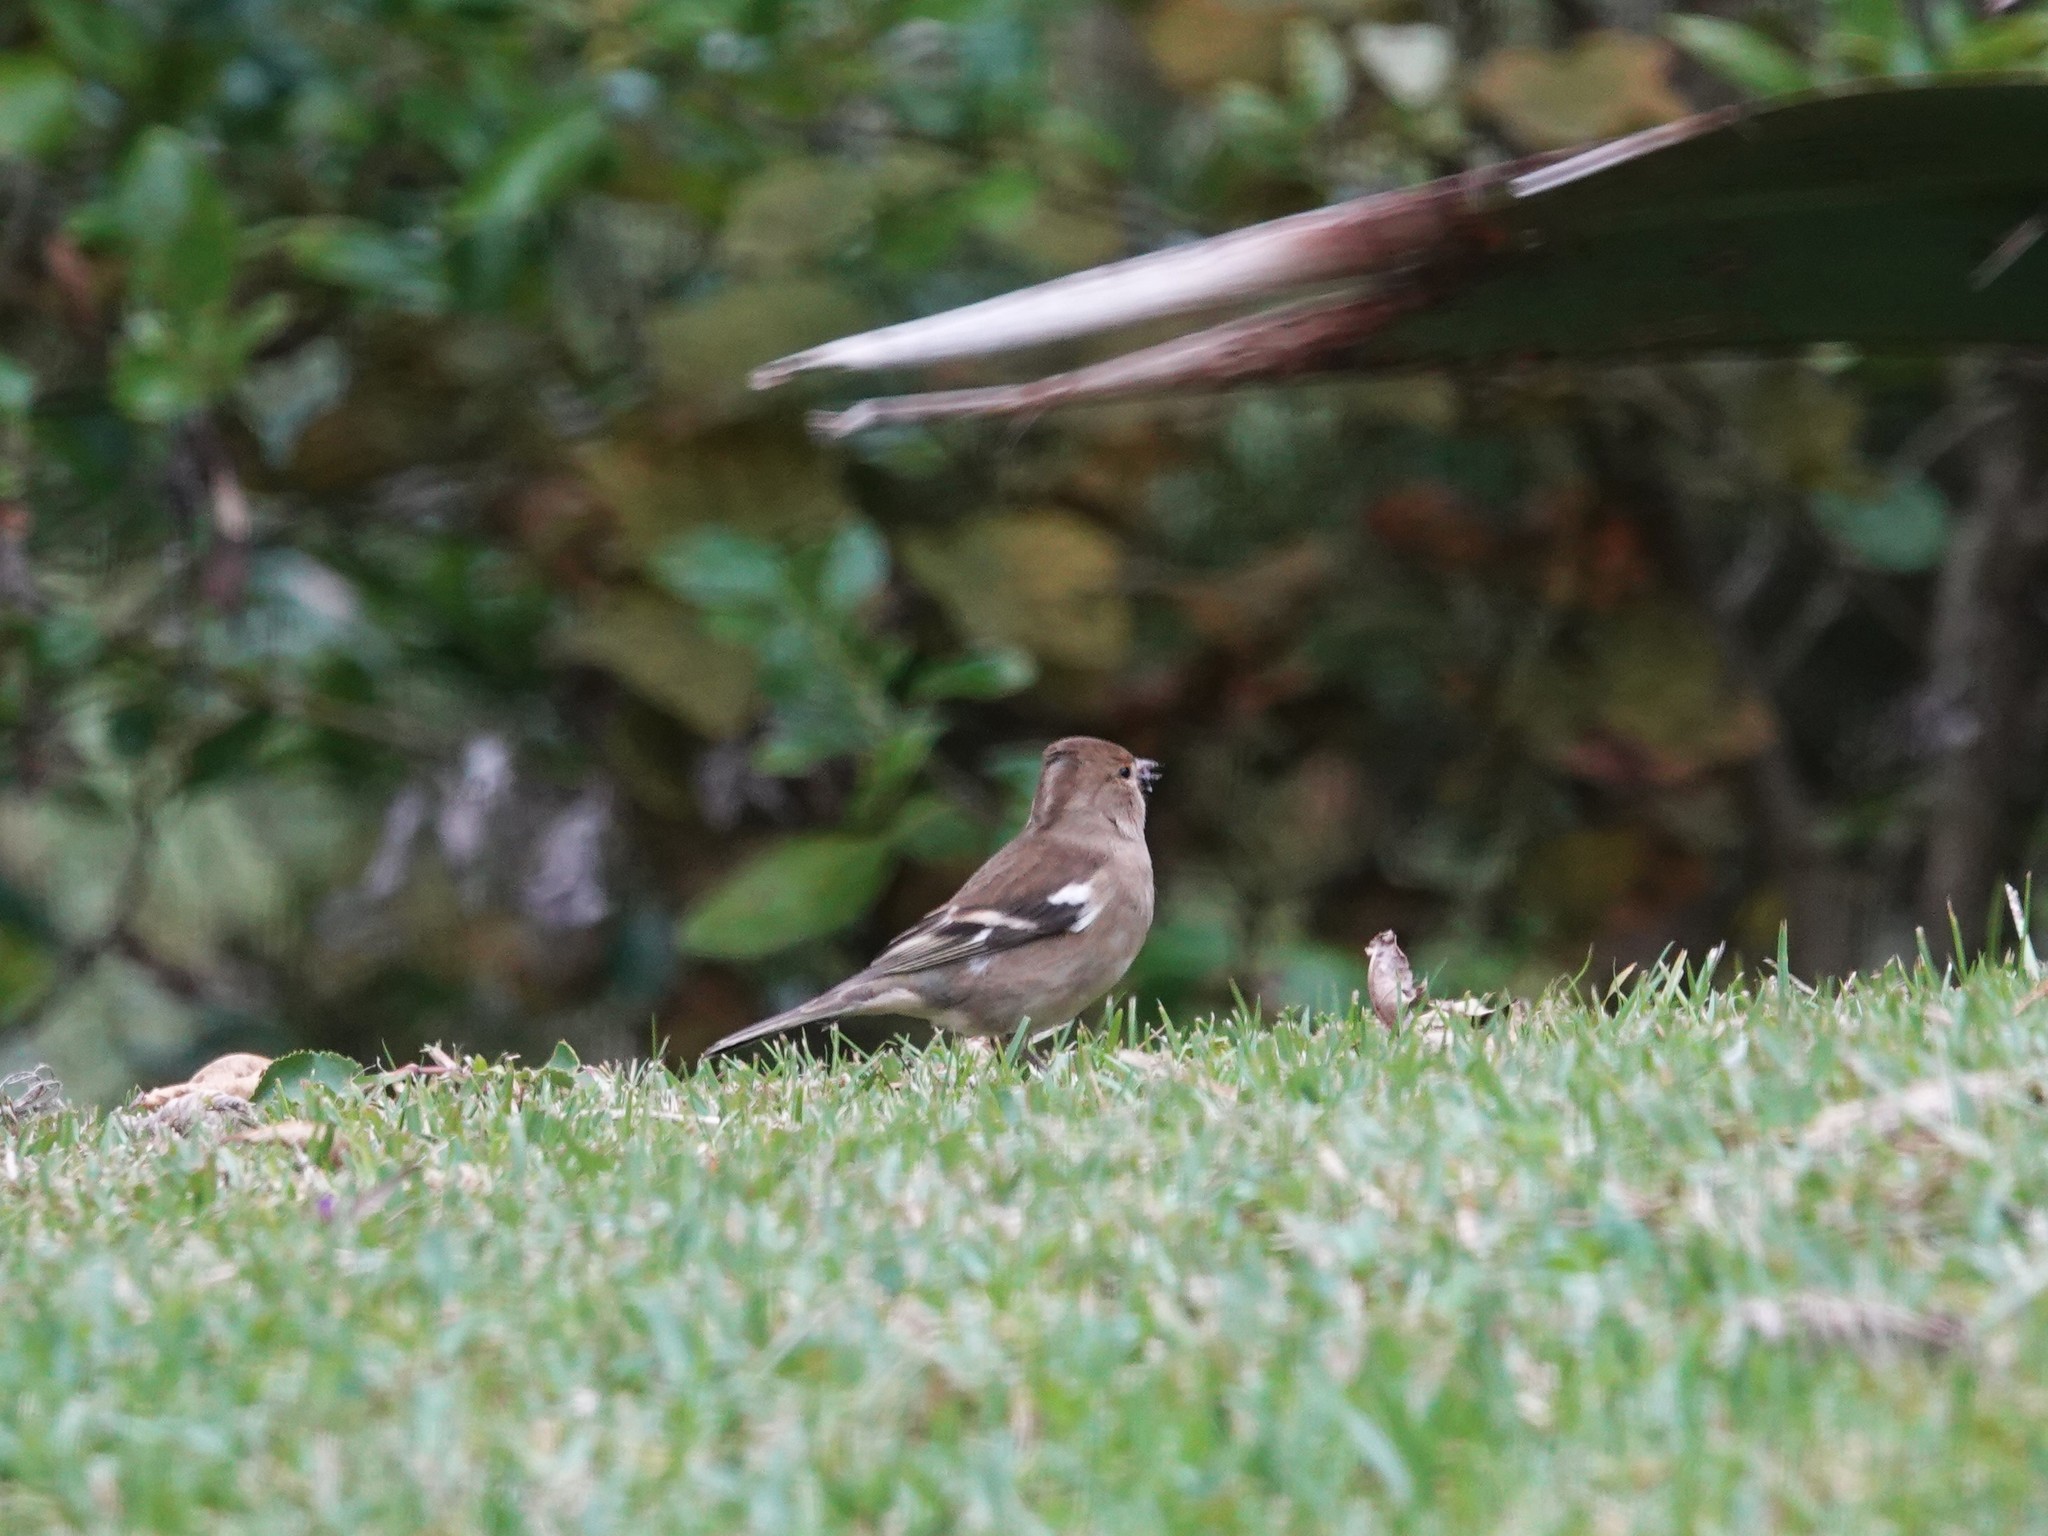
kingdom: Animalia
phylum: Chordata
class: Aves
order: Passeriformes
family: Fringillidae
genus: Fringilla
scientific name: Fringilla coelebs
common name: Common chaffinch
